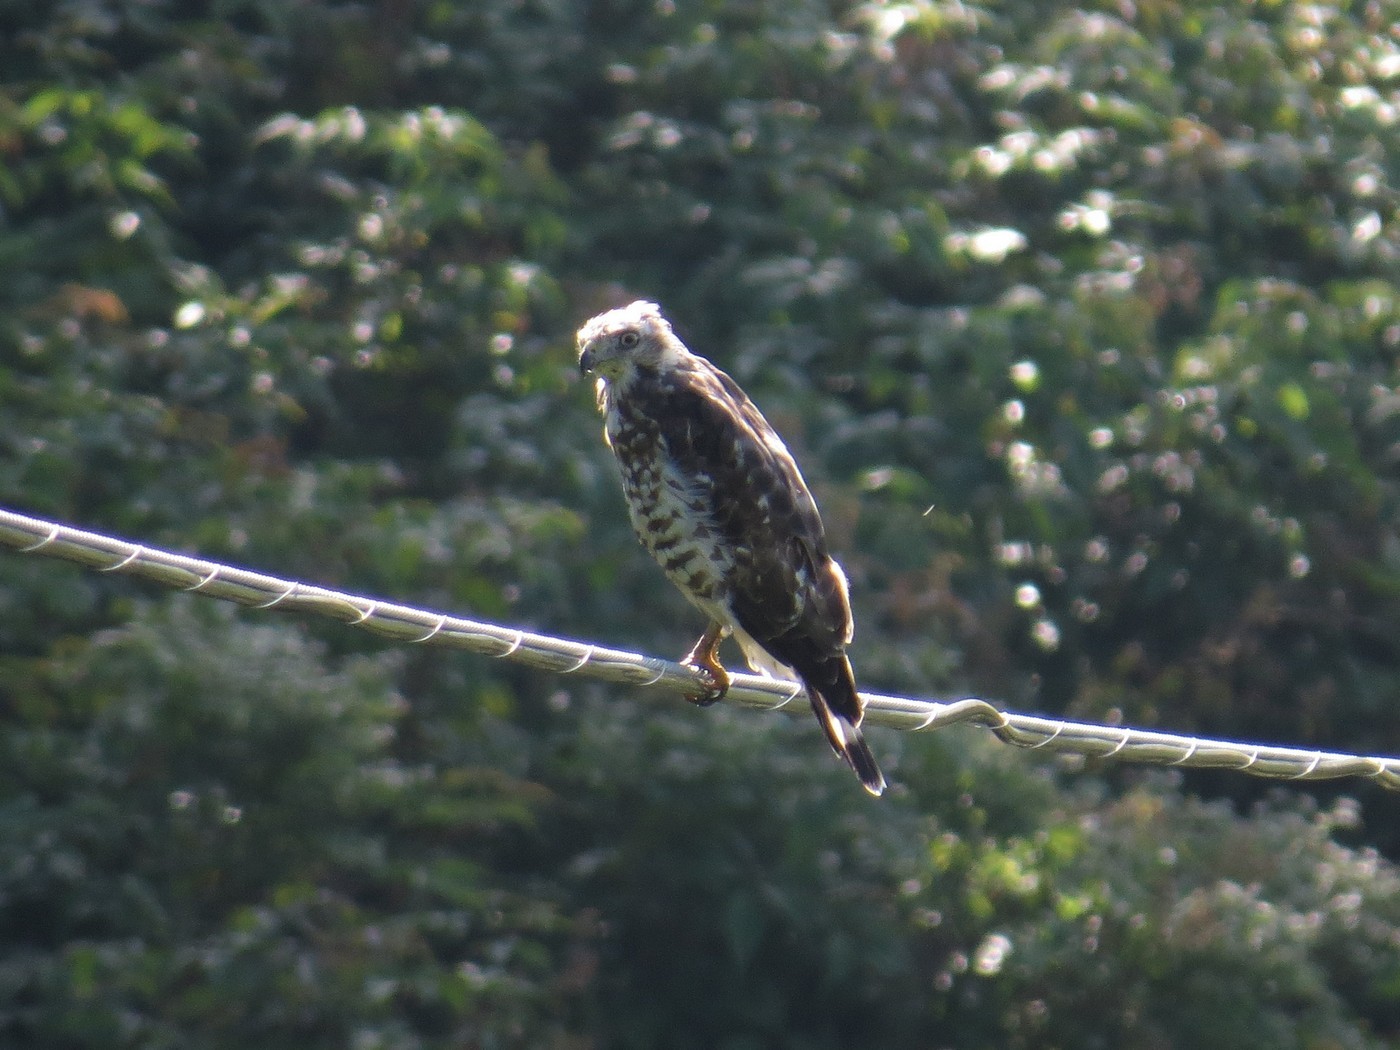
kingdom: Animalia
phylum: Chordata
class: Aves
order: Accipitriformes
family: Accipitridae
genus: Buteo
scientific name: Buteo platypterus
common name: Broad-winged hawk
